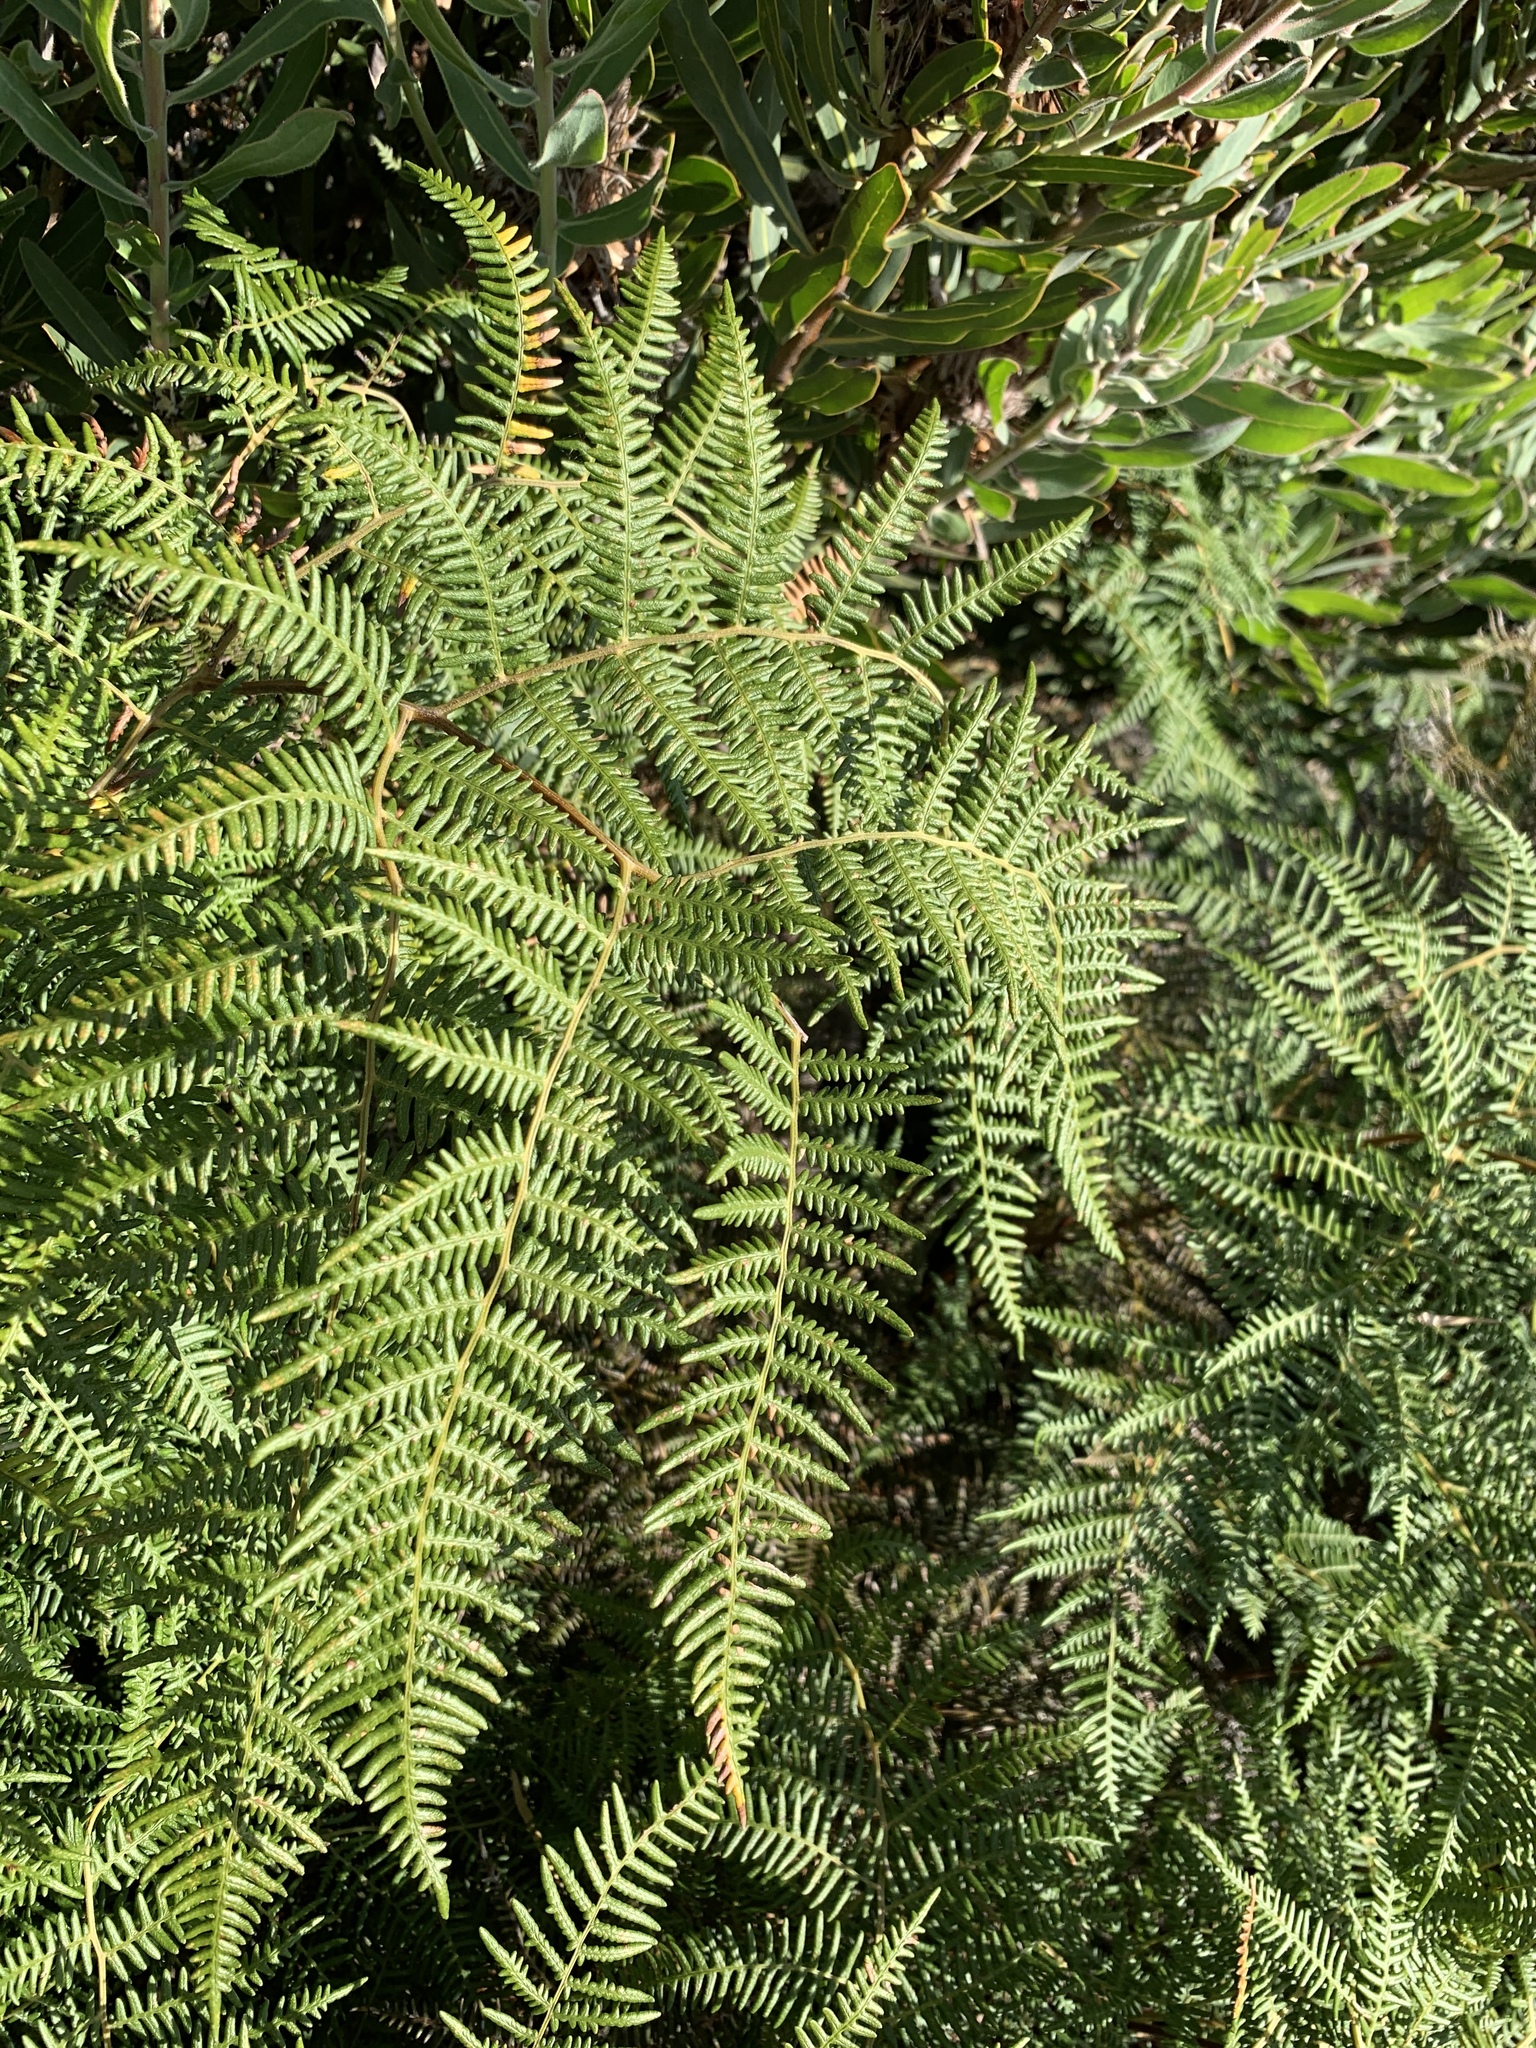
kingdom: Plantae
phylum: Tracheophyta
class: Polypodiopsida
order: Polypodiales
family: Dennstaedtiaceae
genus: Pteridium
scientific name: Pteridium aquilinum
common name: Bracken
